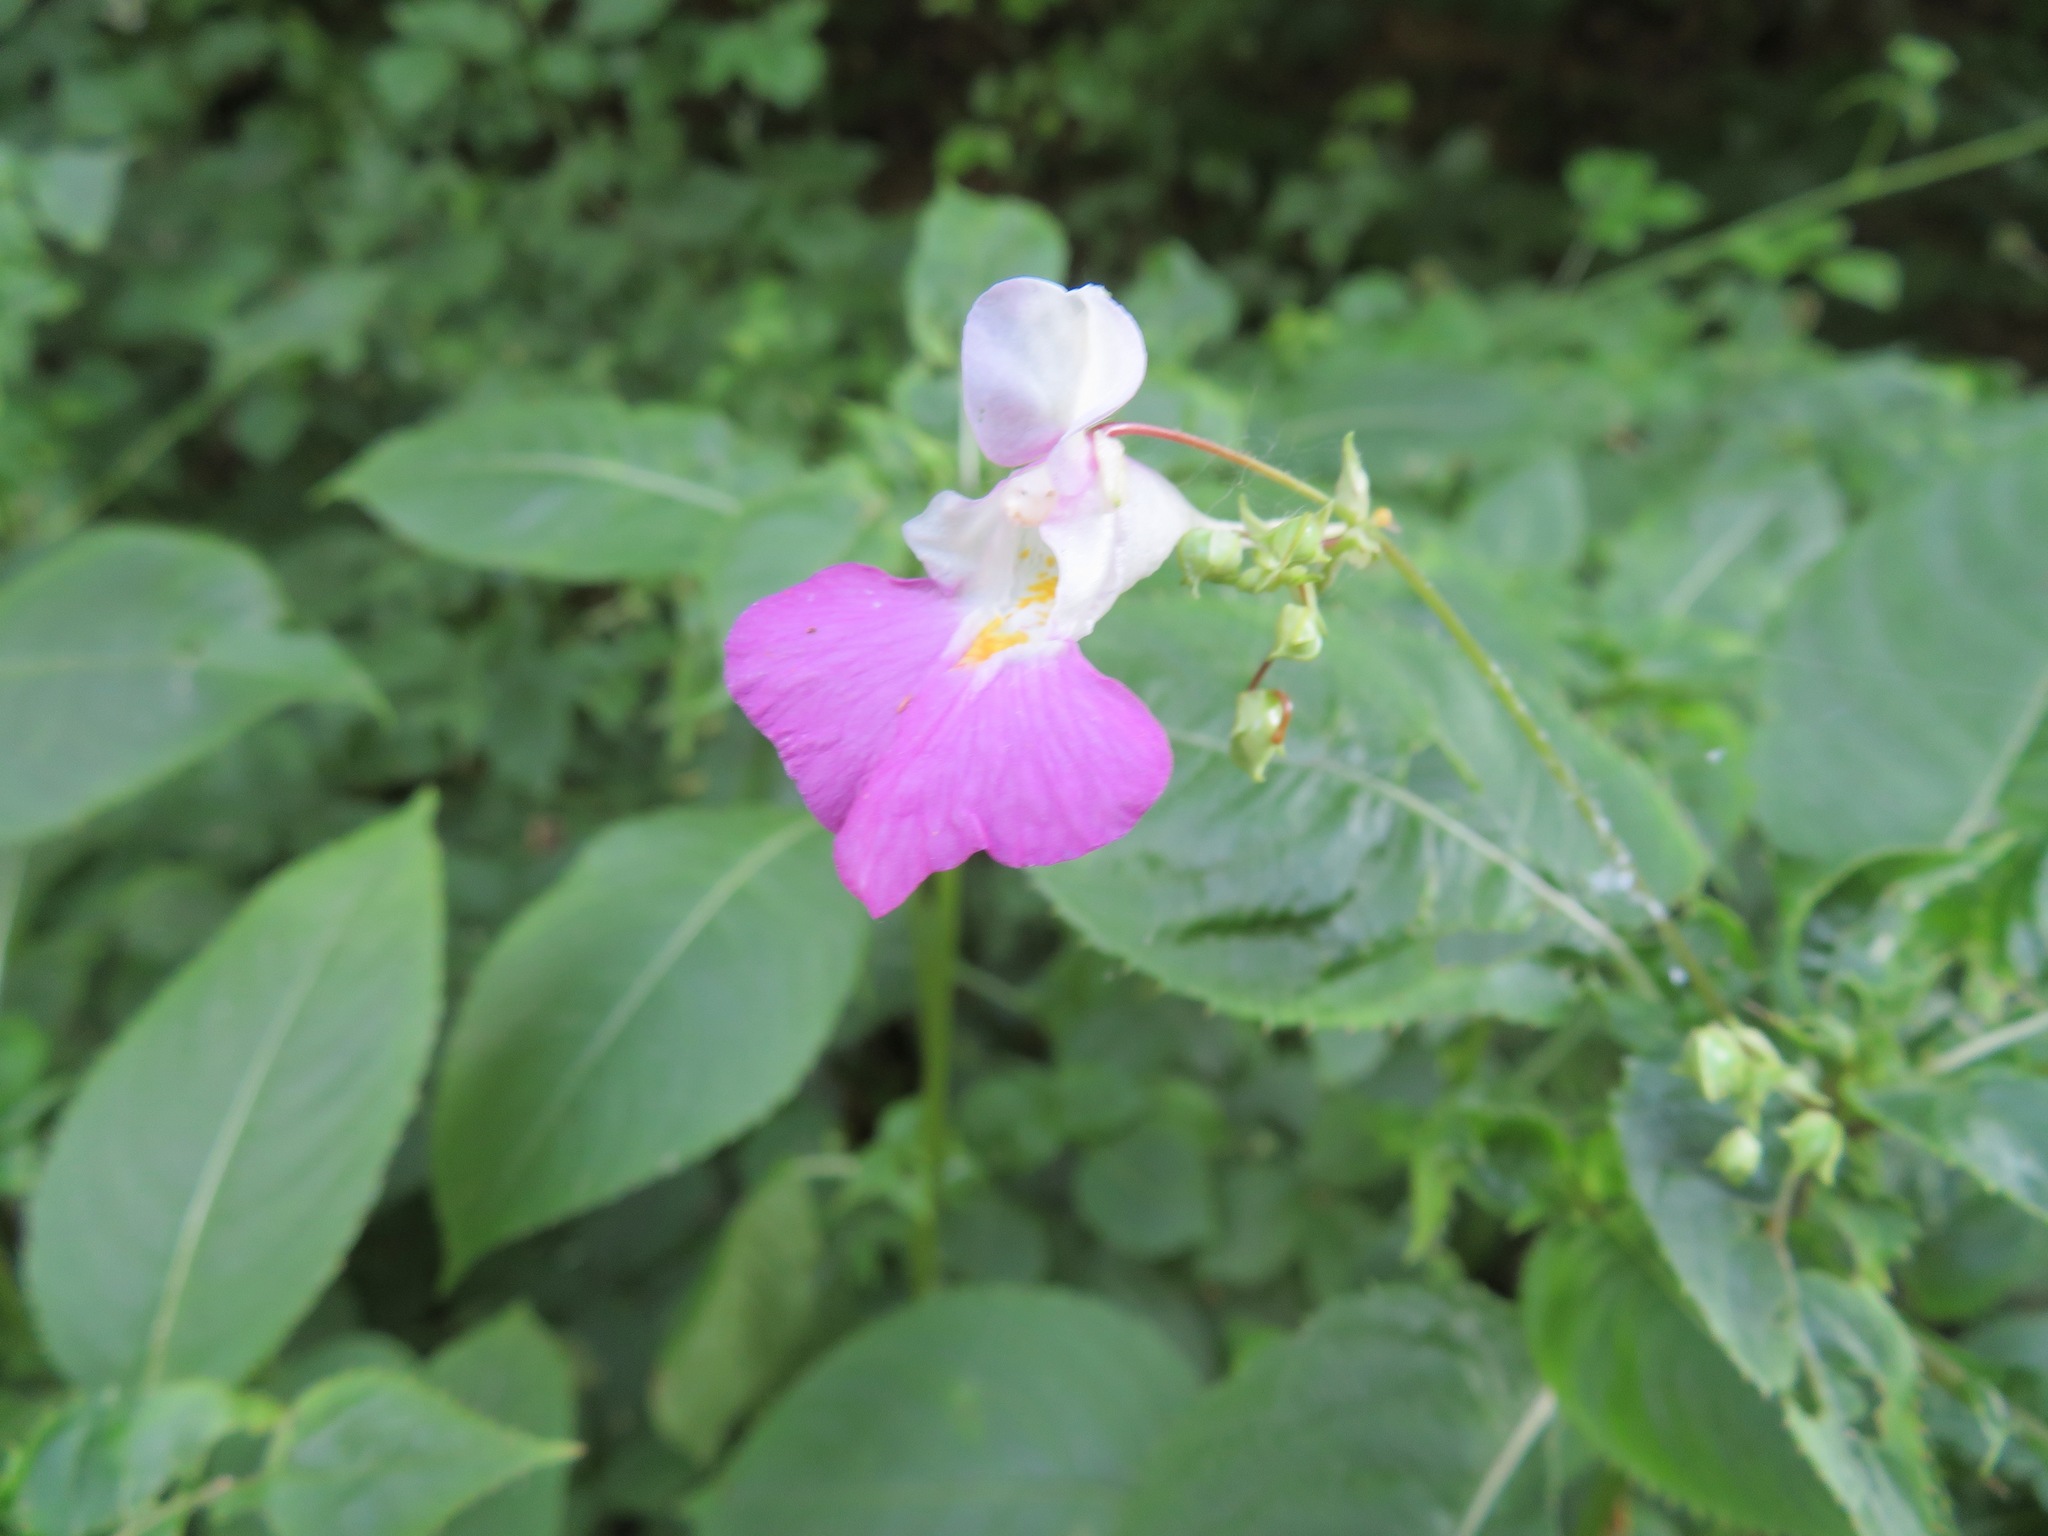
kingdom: Plantae
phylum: Tracheophyta
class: Magnoliopsida
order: Ericales
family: Balsaminaceae
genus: Impatiens
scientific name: Impatiens balfourii
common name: Balfour's touch-me-not
